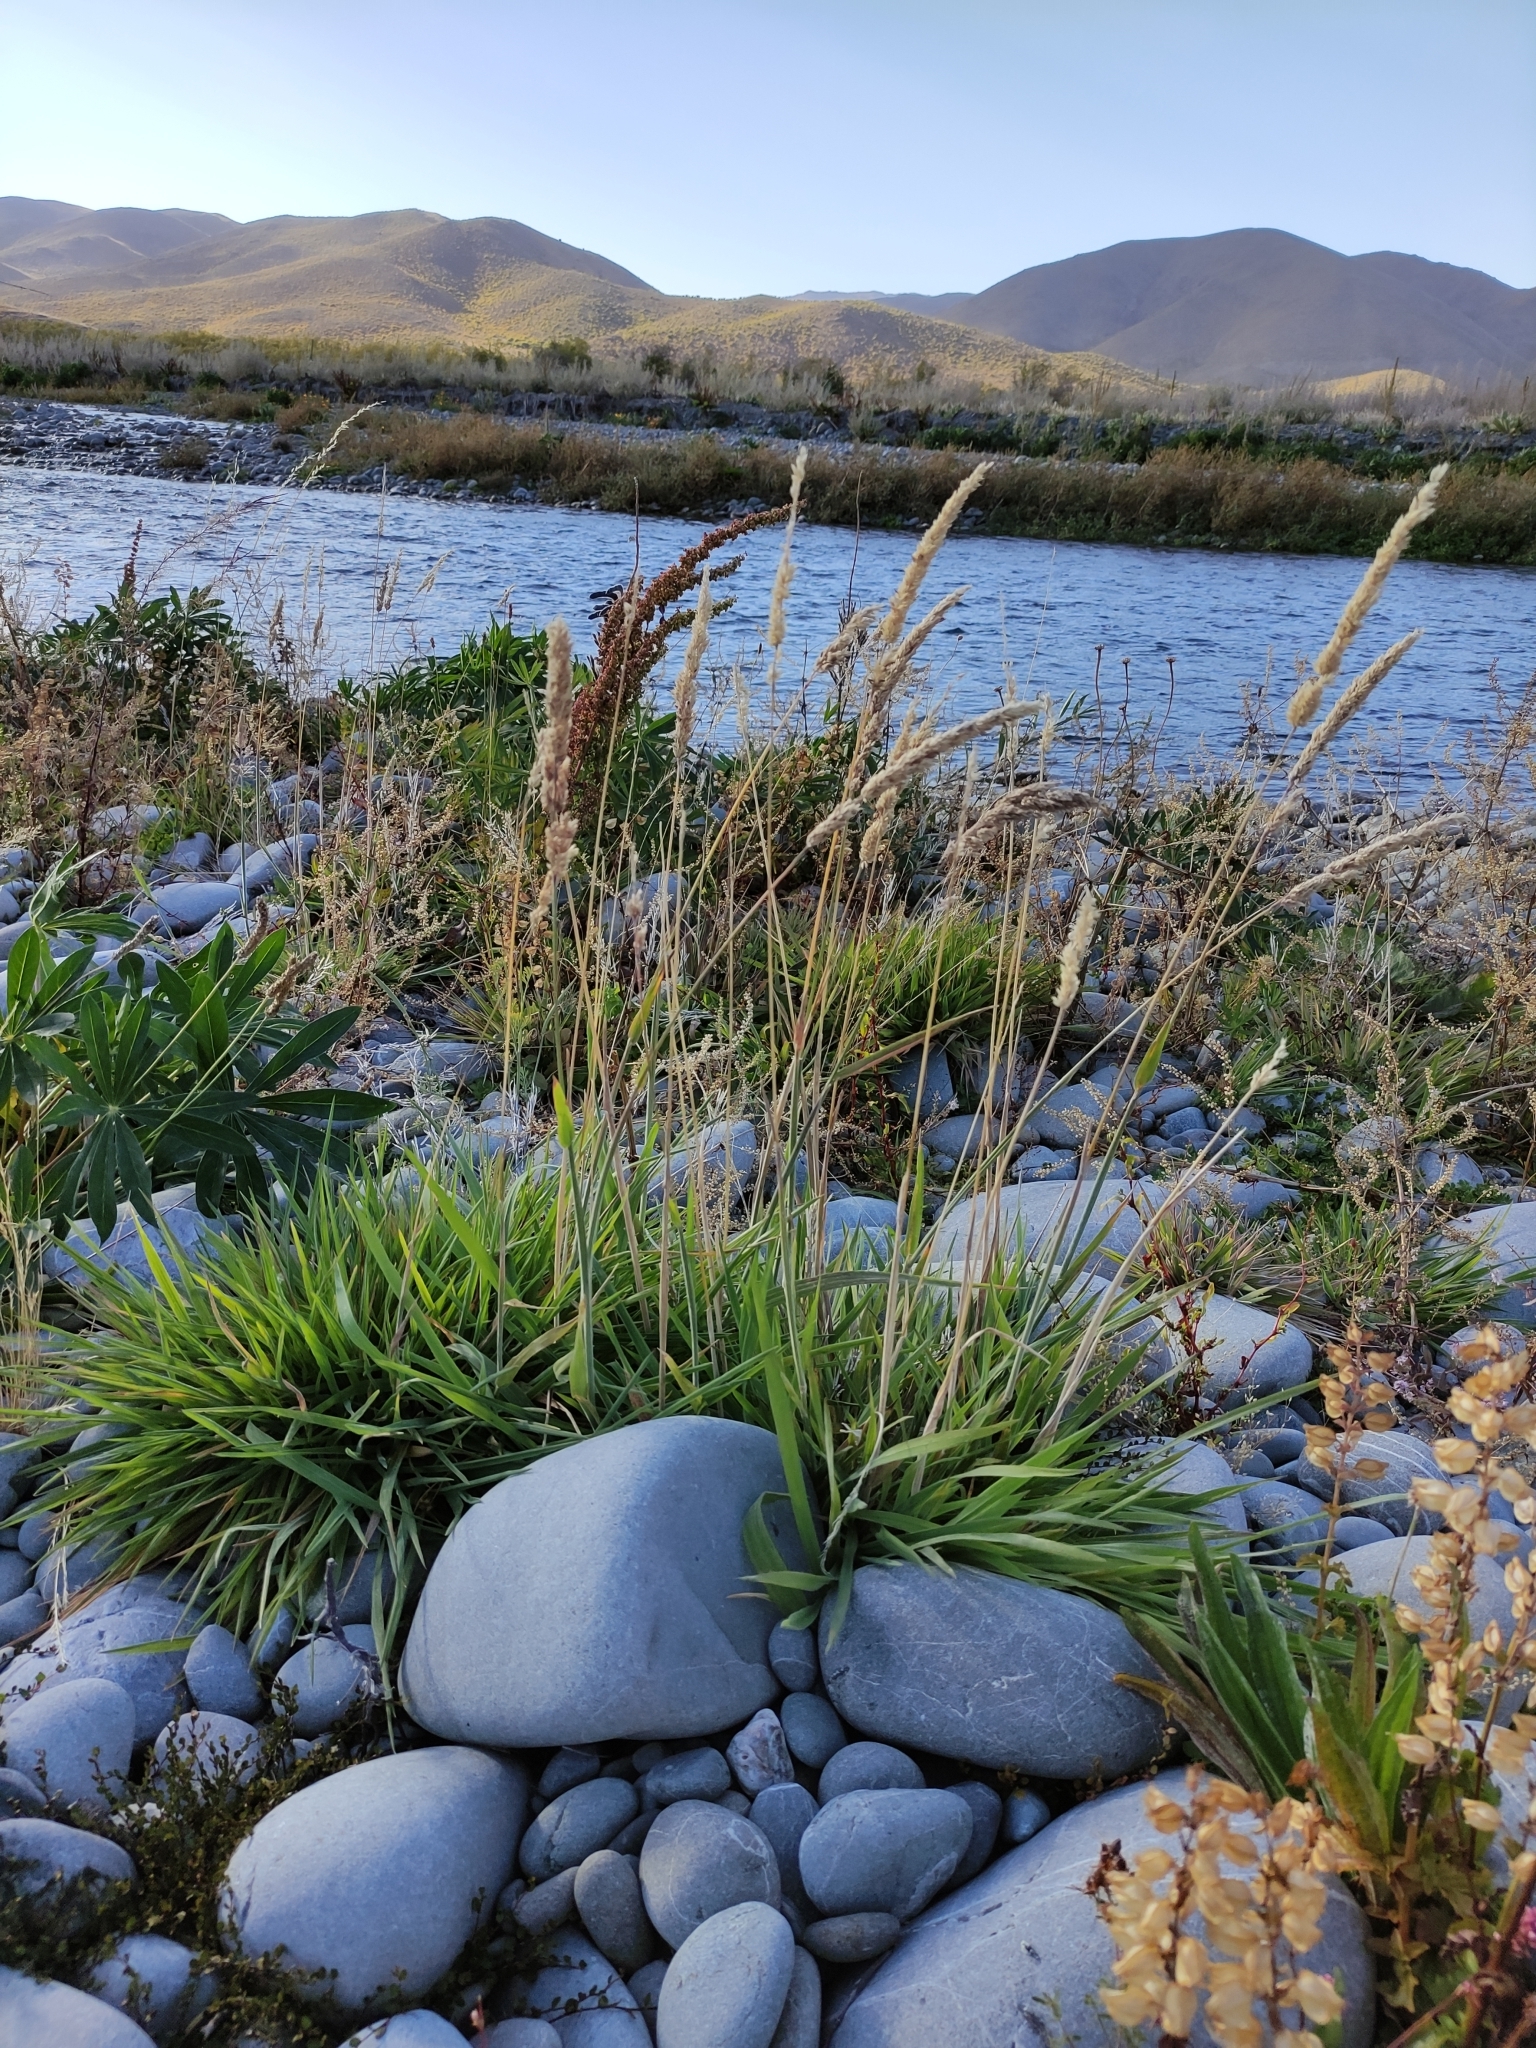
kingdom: Plantae
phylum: Tracheophyta
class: Liliopsida
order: Poales
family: Poaceae
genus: Holcus
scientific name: Holcus lanatus
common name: Yorkshire-fog
